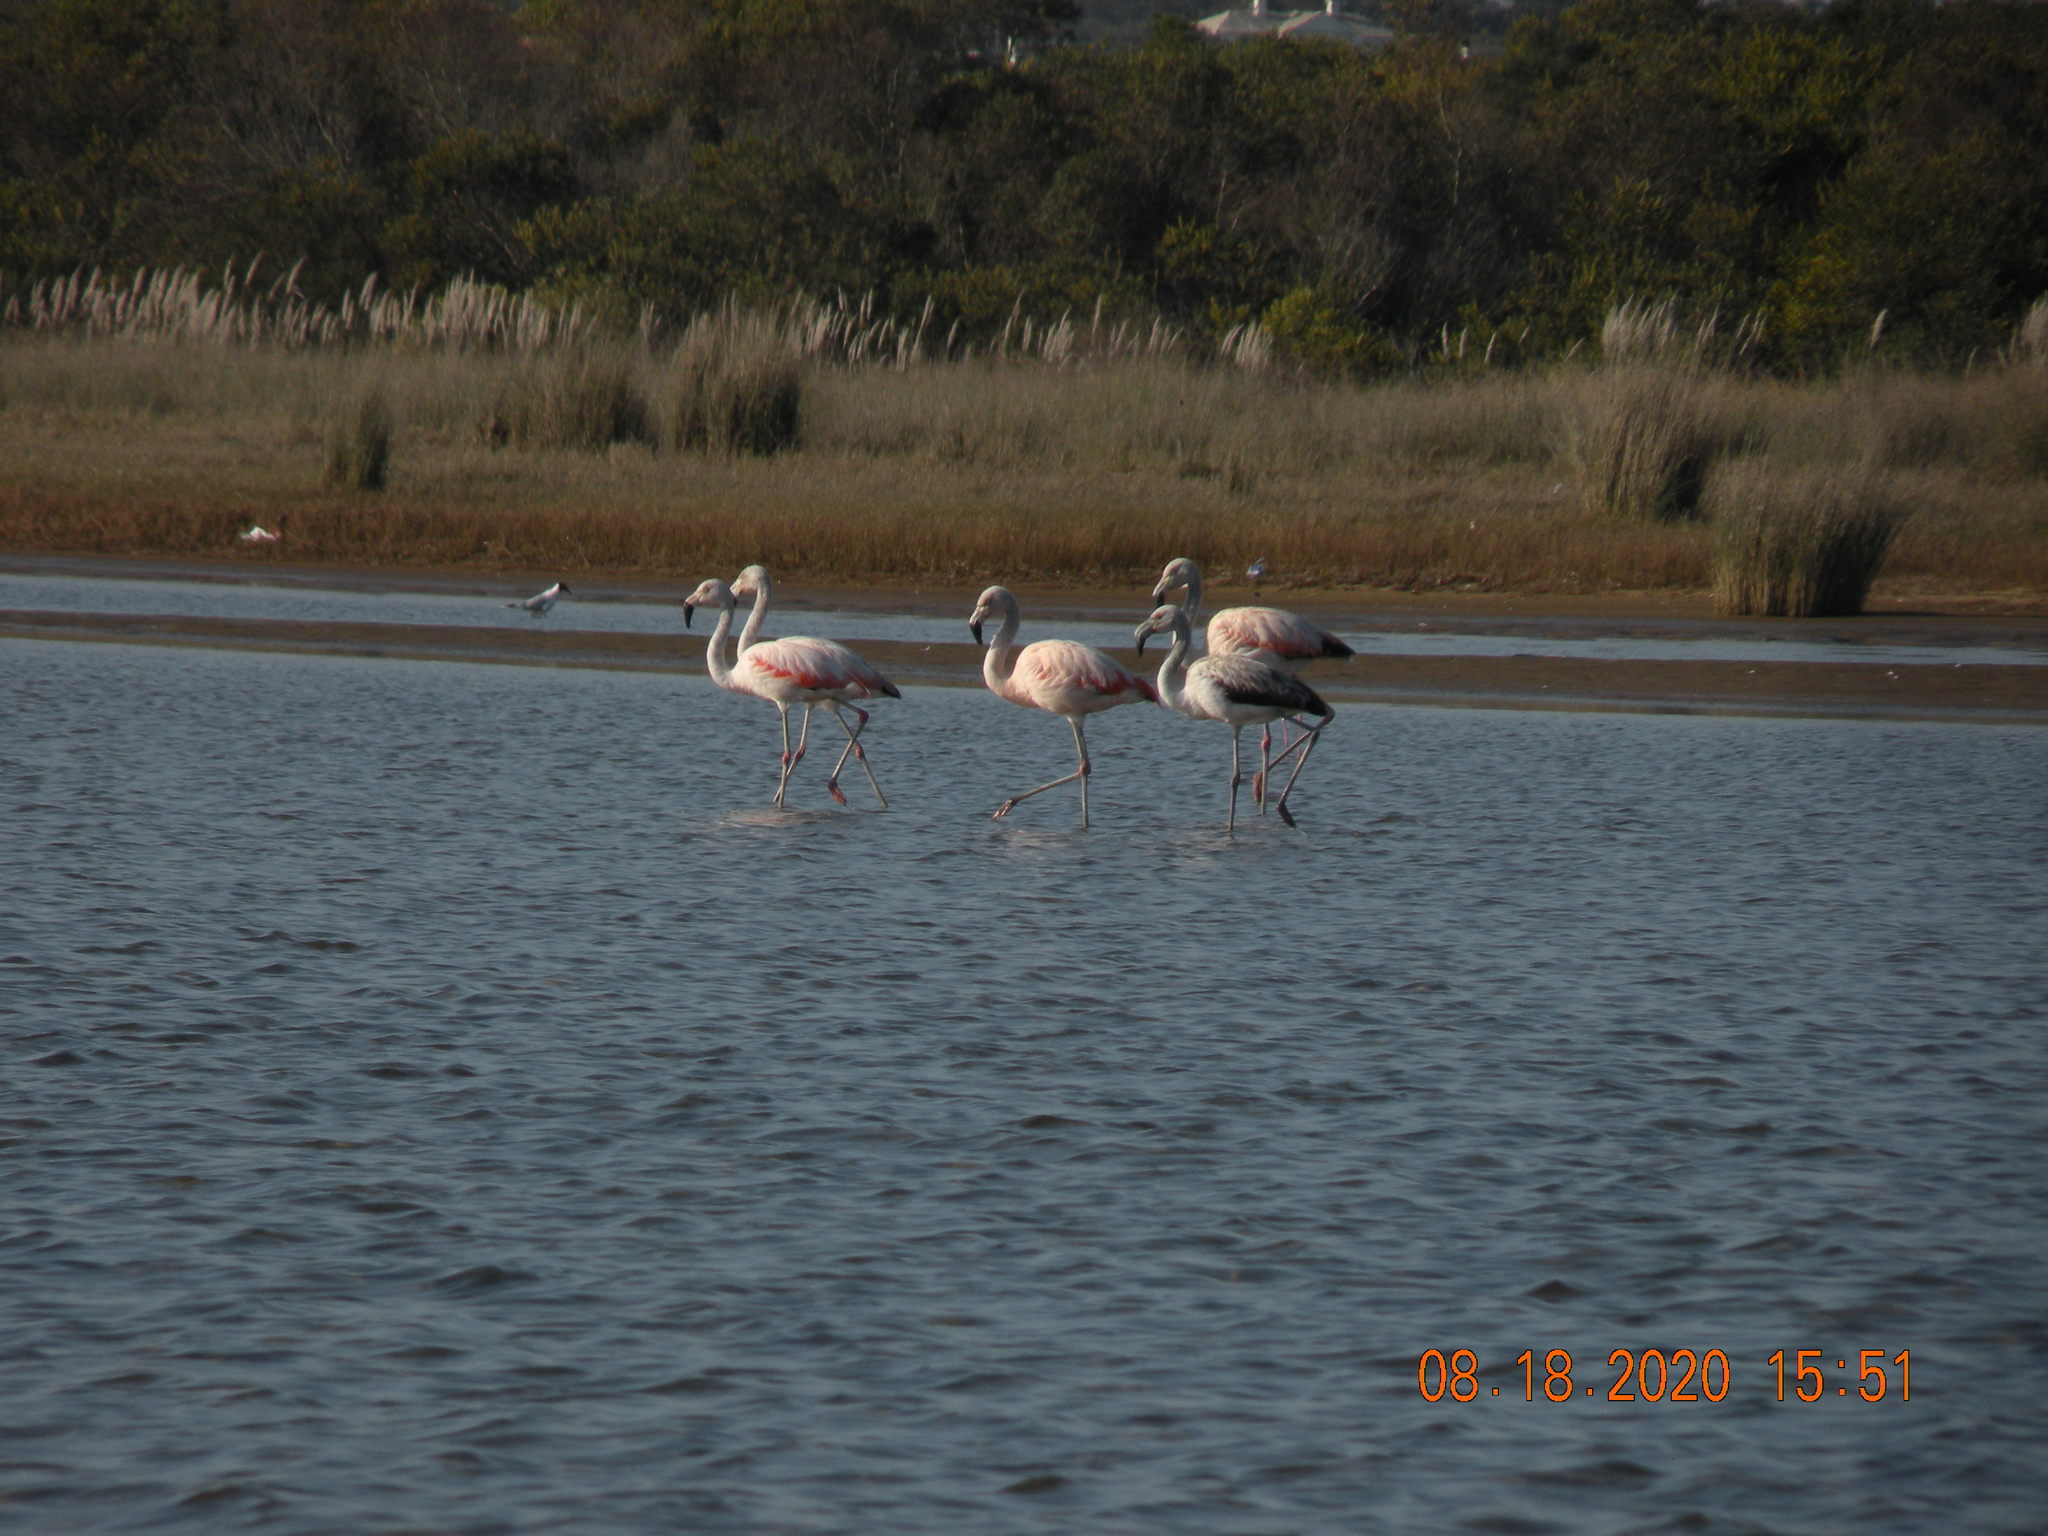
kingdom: Animalia
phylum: Chordata
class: Aves
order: Phoenicopteriformes
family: Phoenicopteridae
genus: Phoenicopterus
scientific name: Phoenicopterus chilensis
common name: Chilean flamingo
